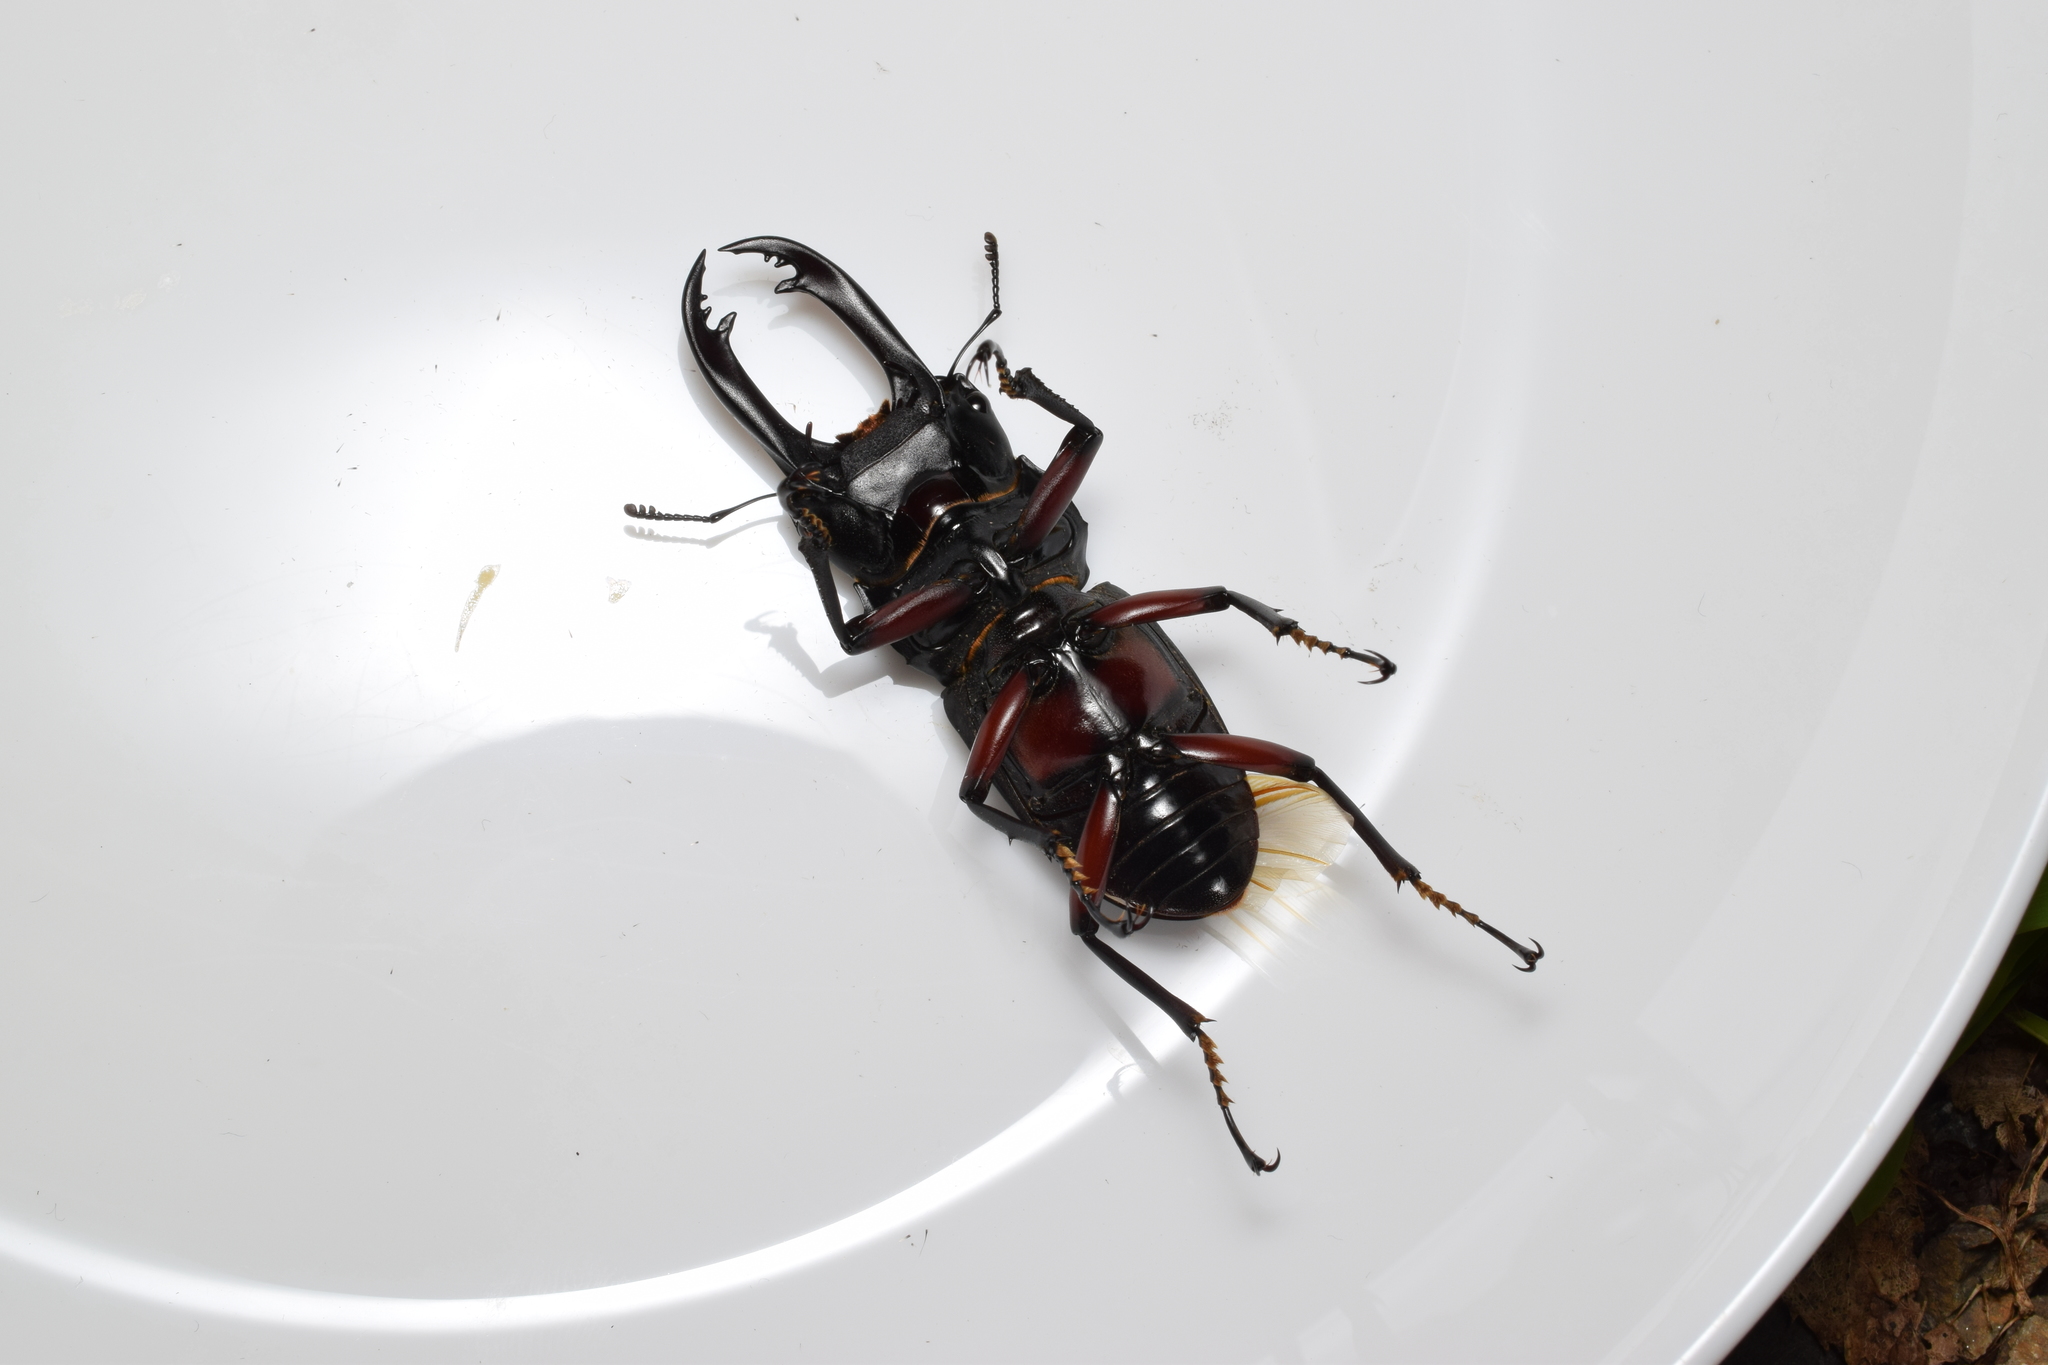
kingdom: Animalia
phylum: Arthropoda
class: Insecta
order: Coleoptera
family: Lucanidae
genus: Dorcus
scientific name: Dorcus rubrofemoratus
